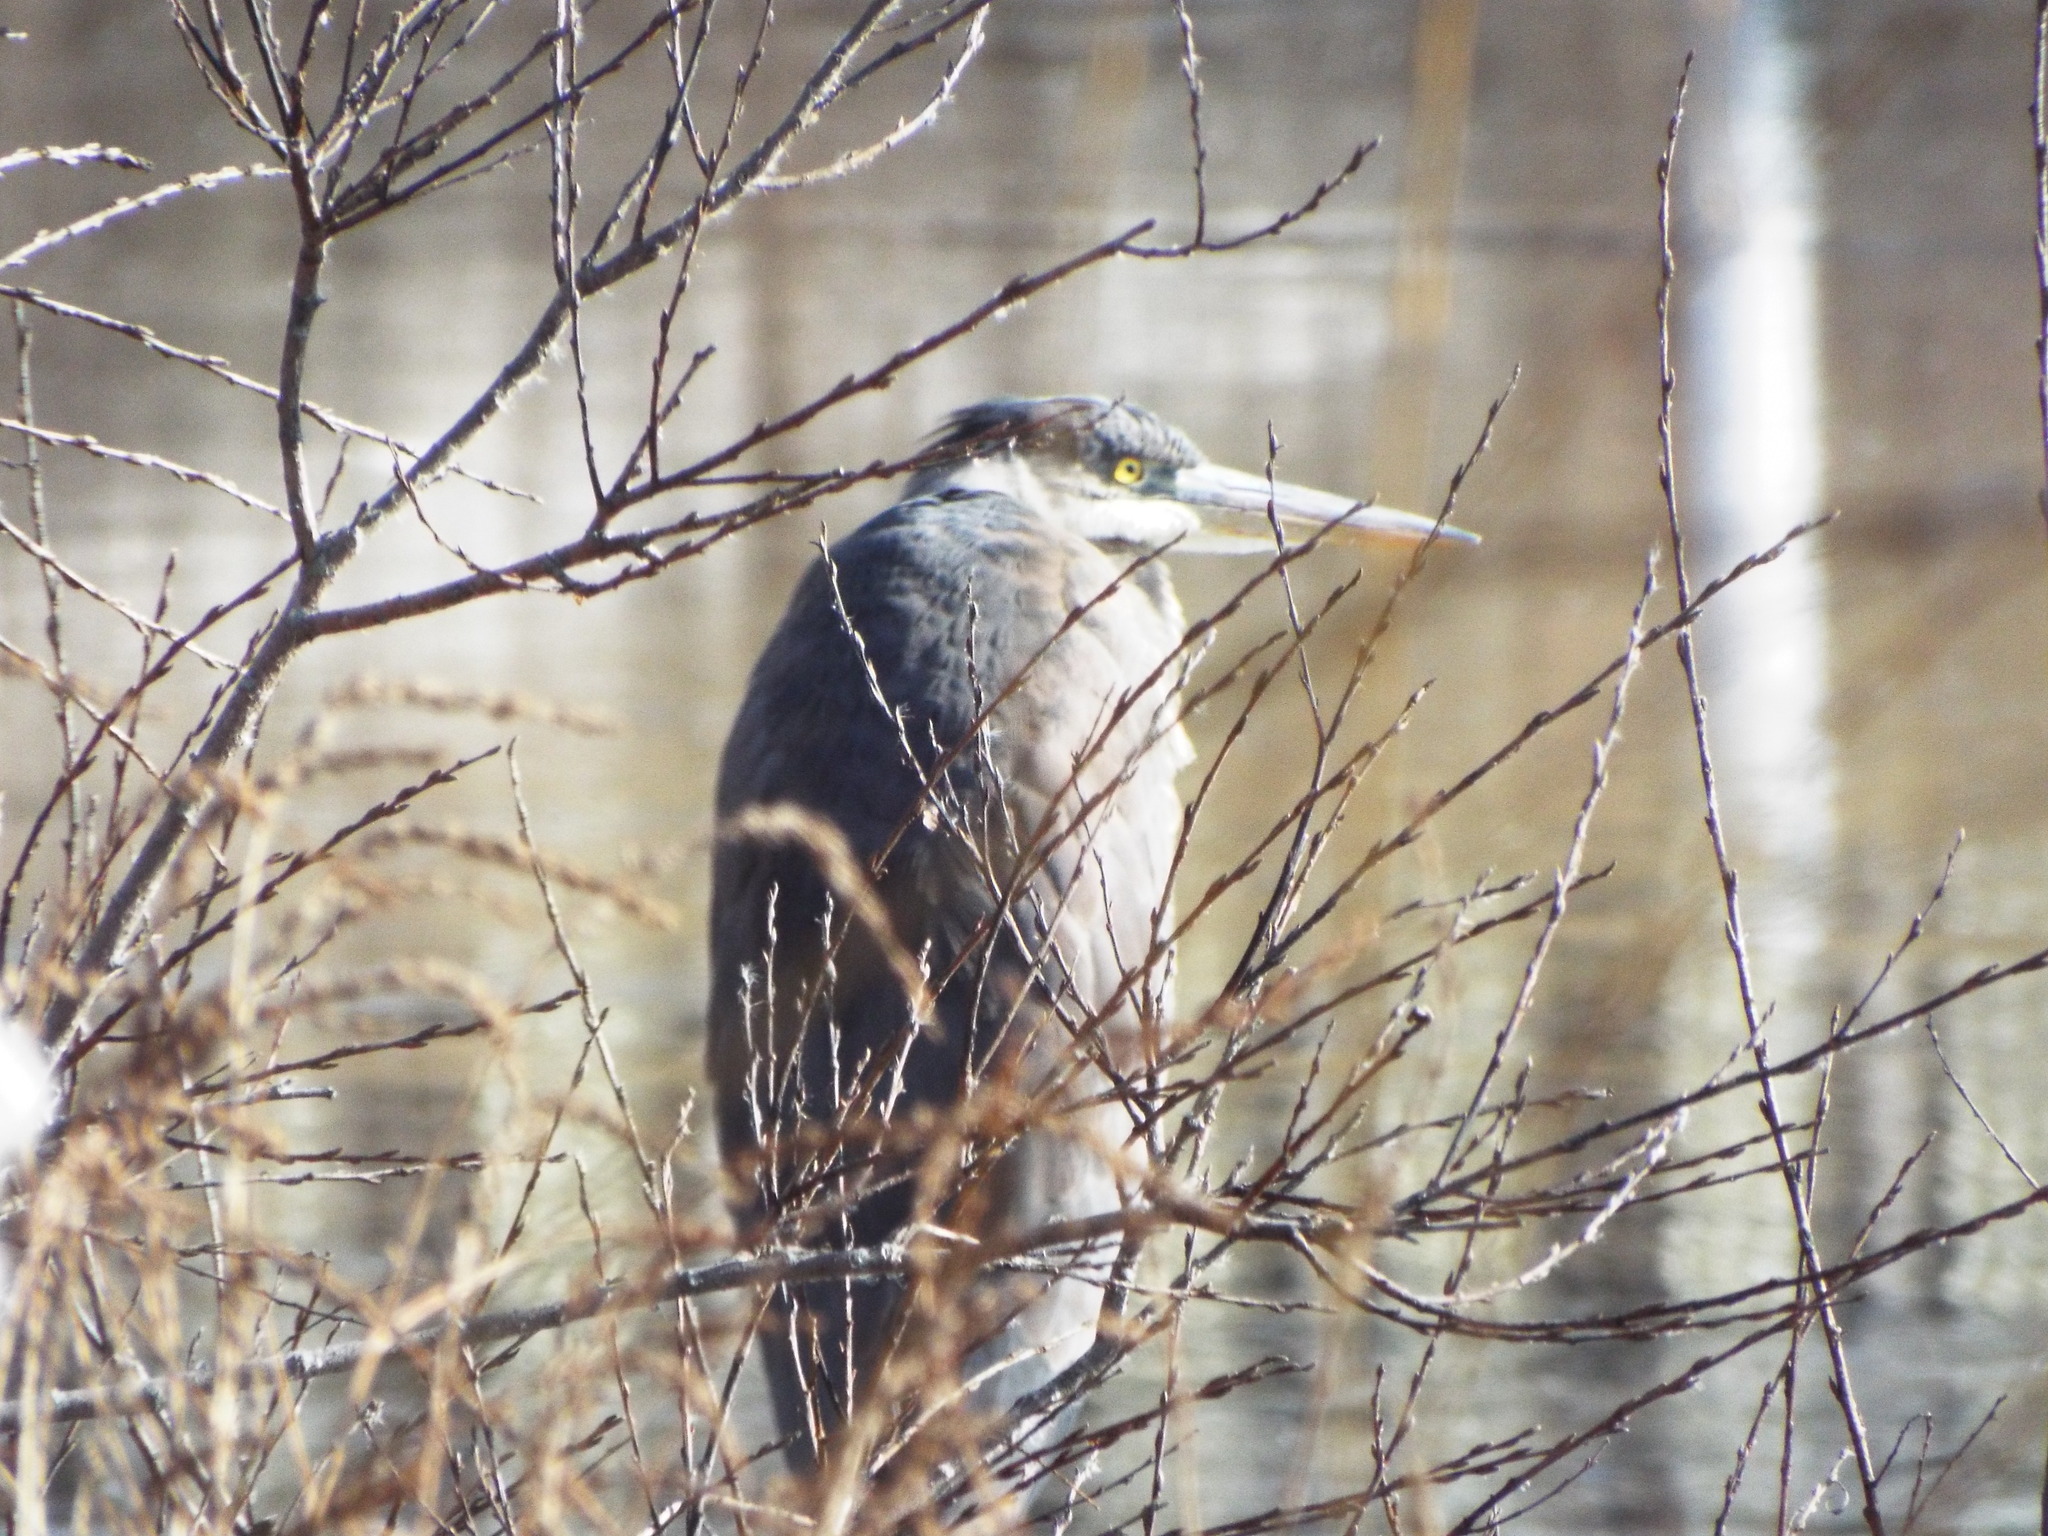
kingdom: Animalia
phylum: Chordata
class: Aves
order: Pelecaniformes
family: Ardeidae
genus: Ardea
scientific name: Ardea herodias
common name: Great blue heron
